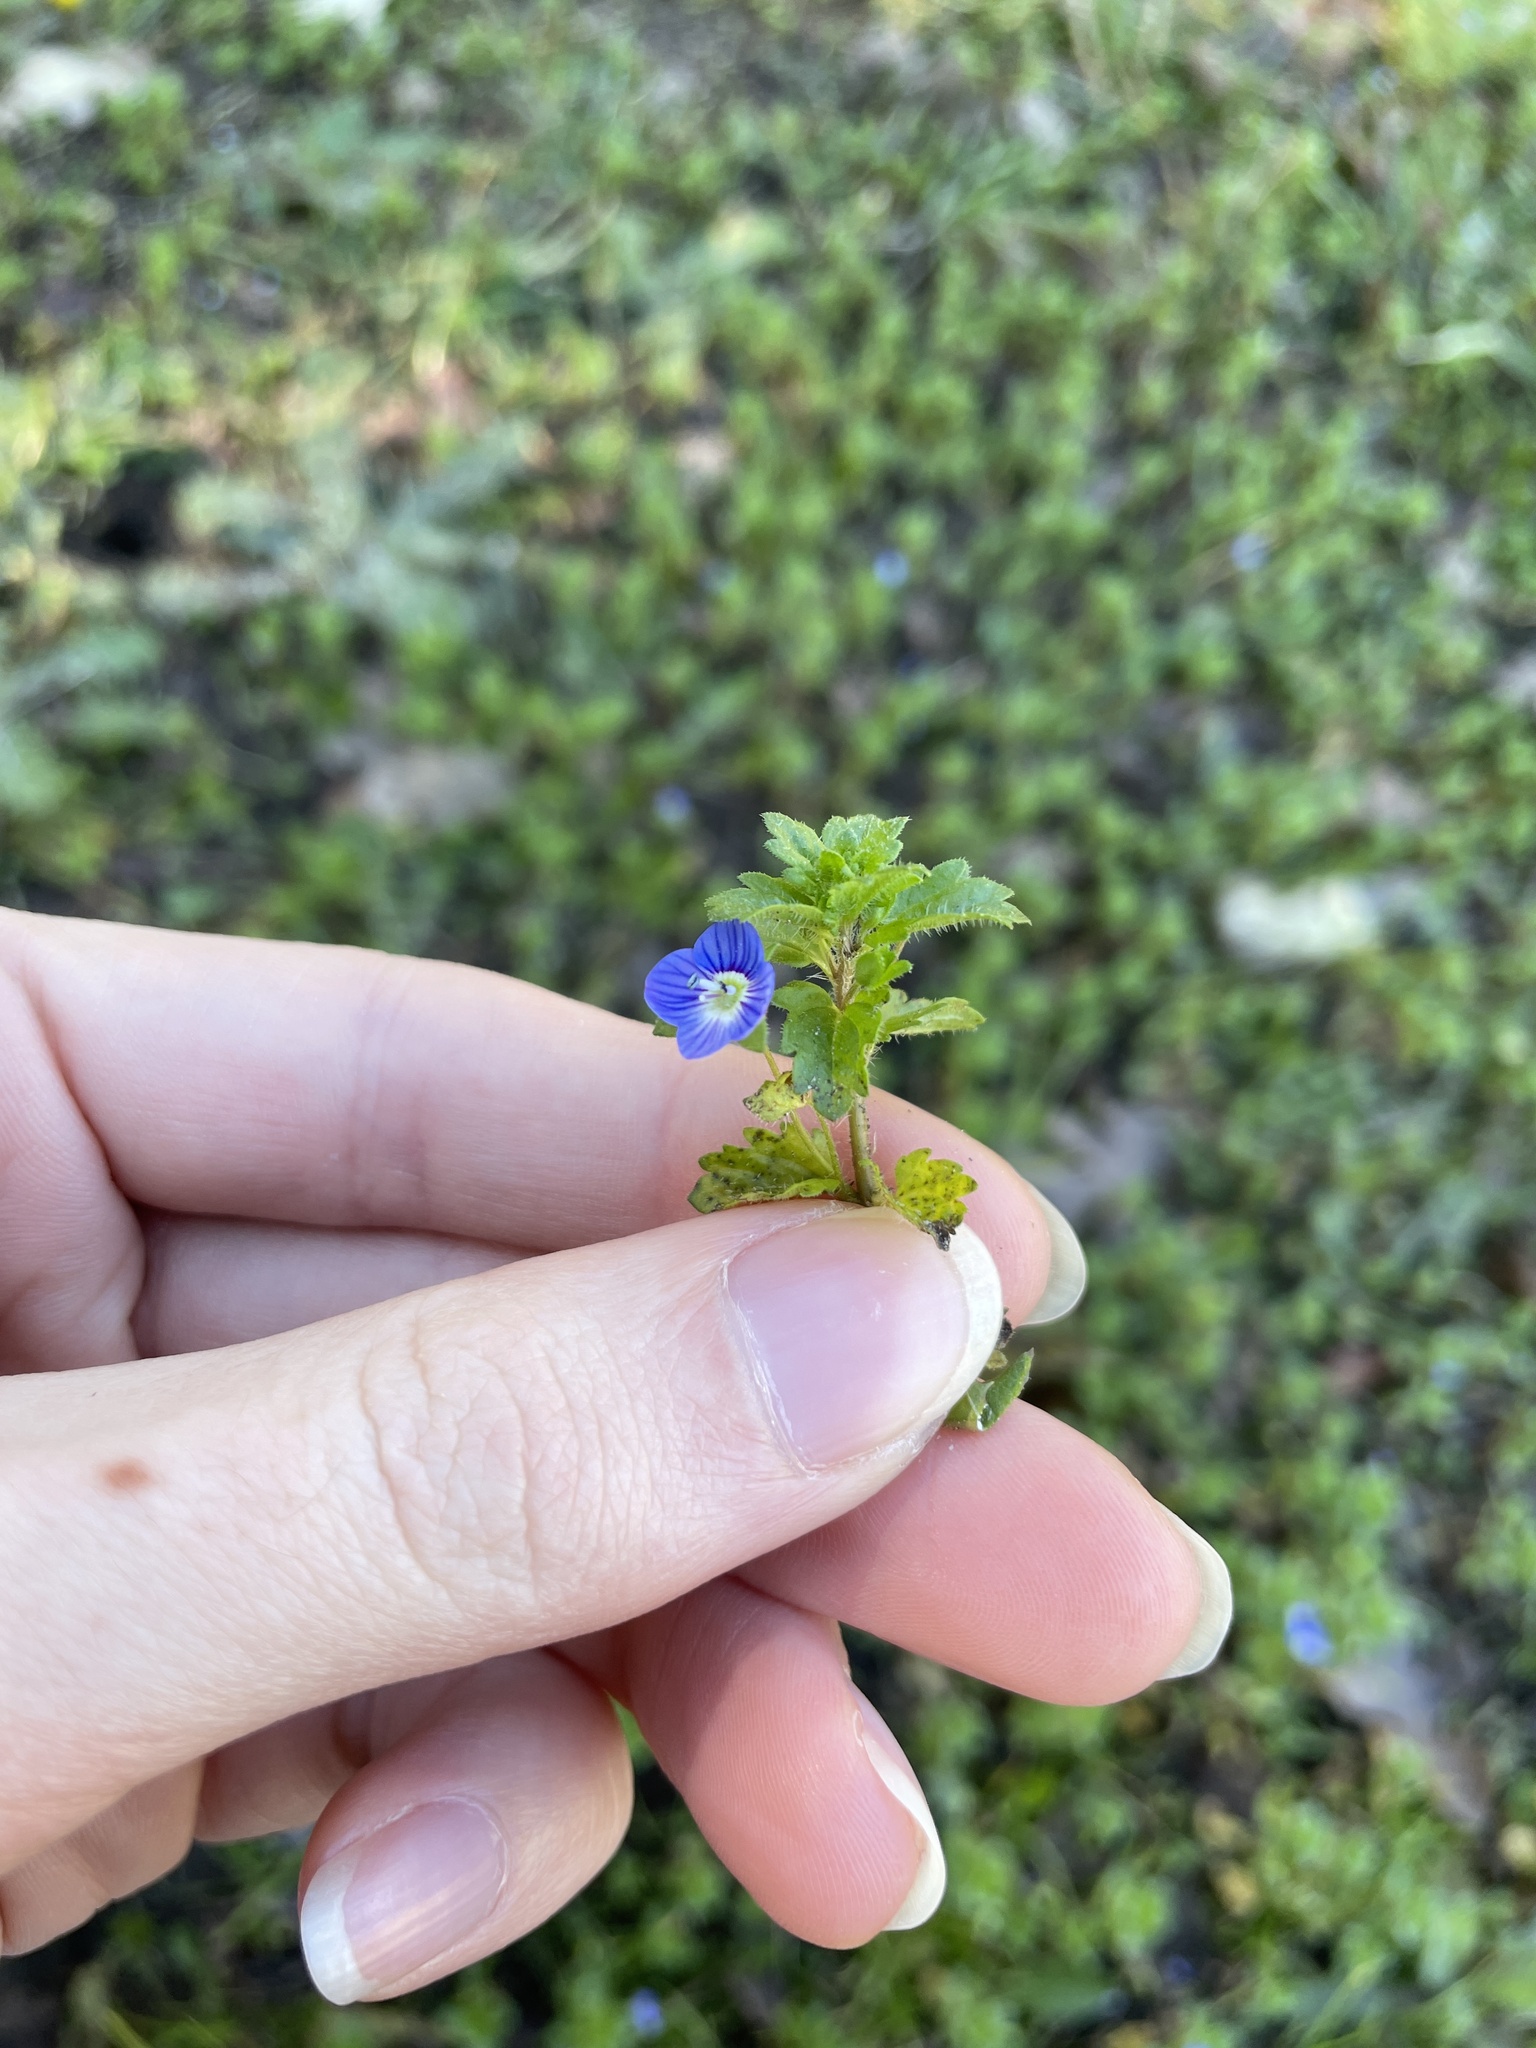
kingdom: Plantae
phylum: Tracheophyta
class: Magnoliopsida
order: Lamiales
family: Plantaginaceae
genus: Veronica
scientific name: Veronica persica
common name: Common field-speedwell
